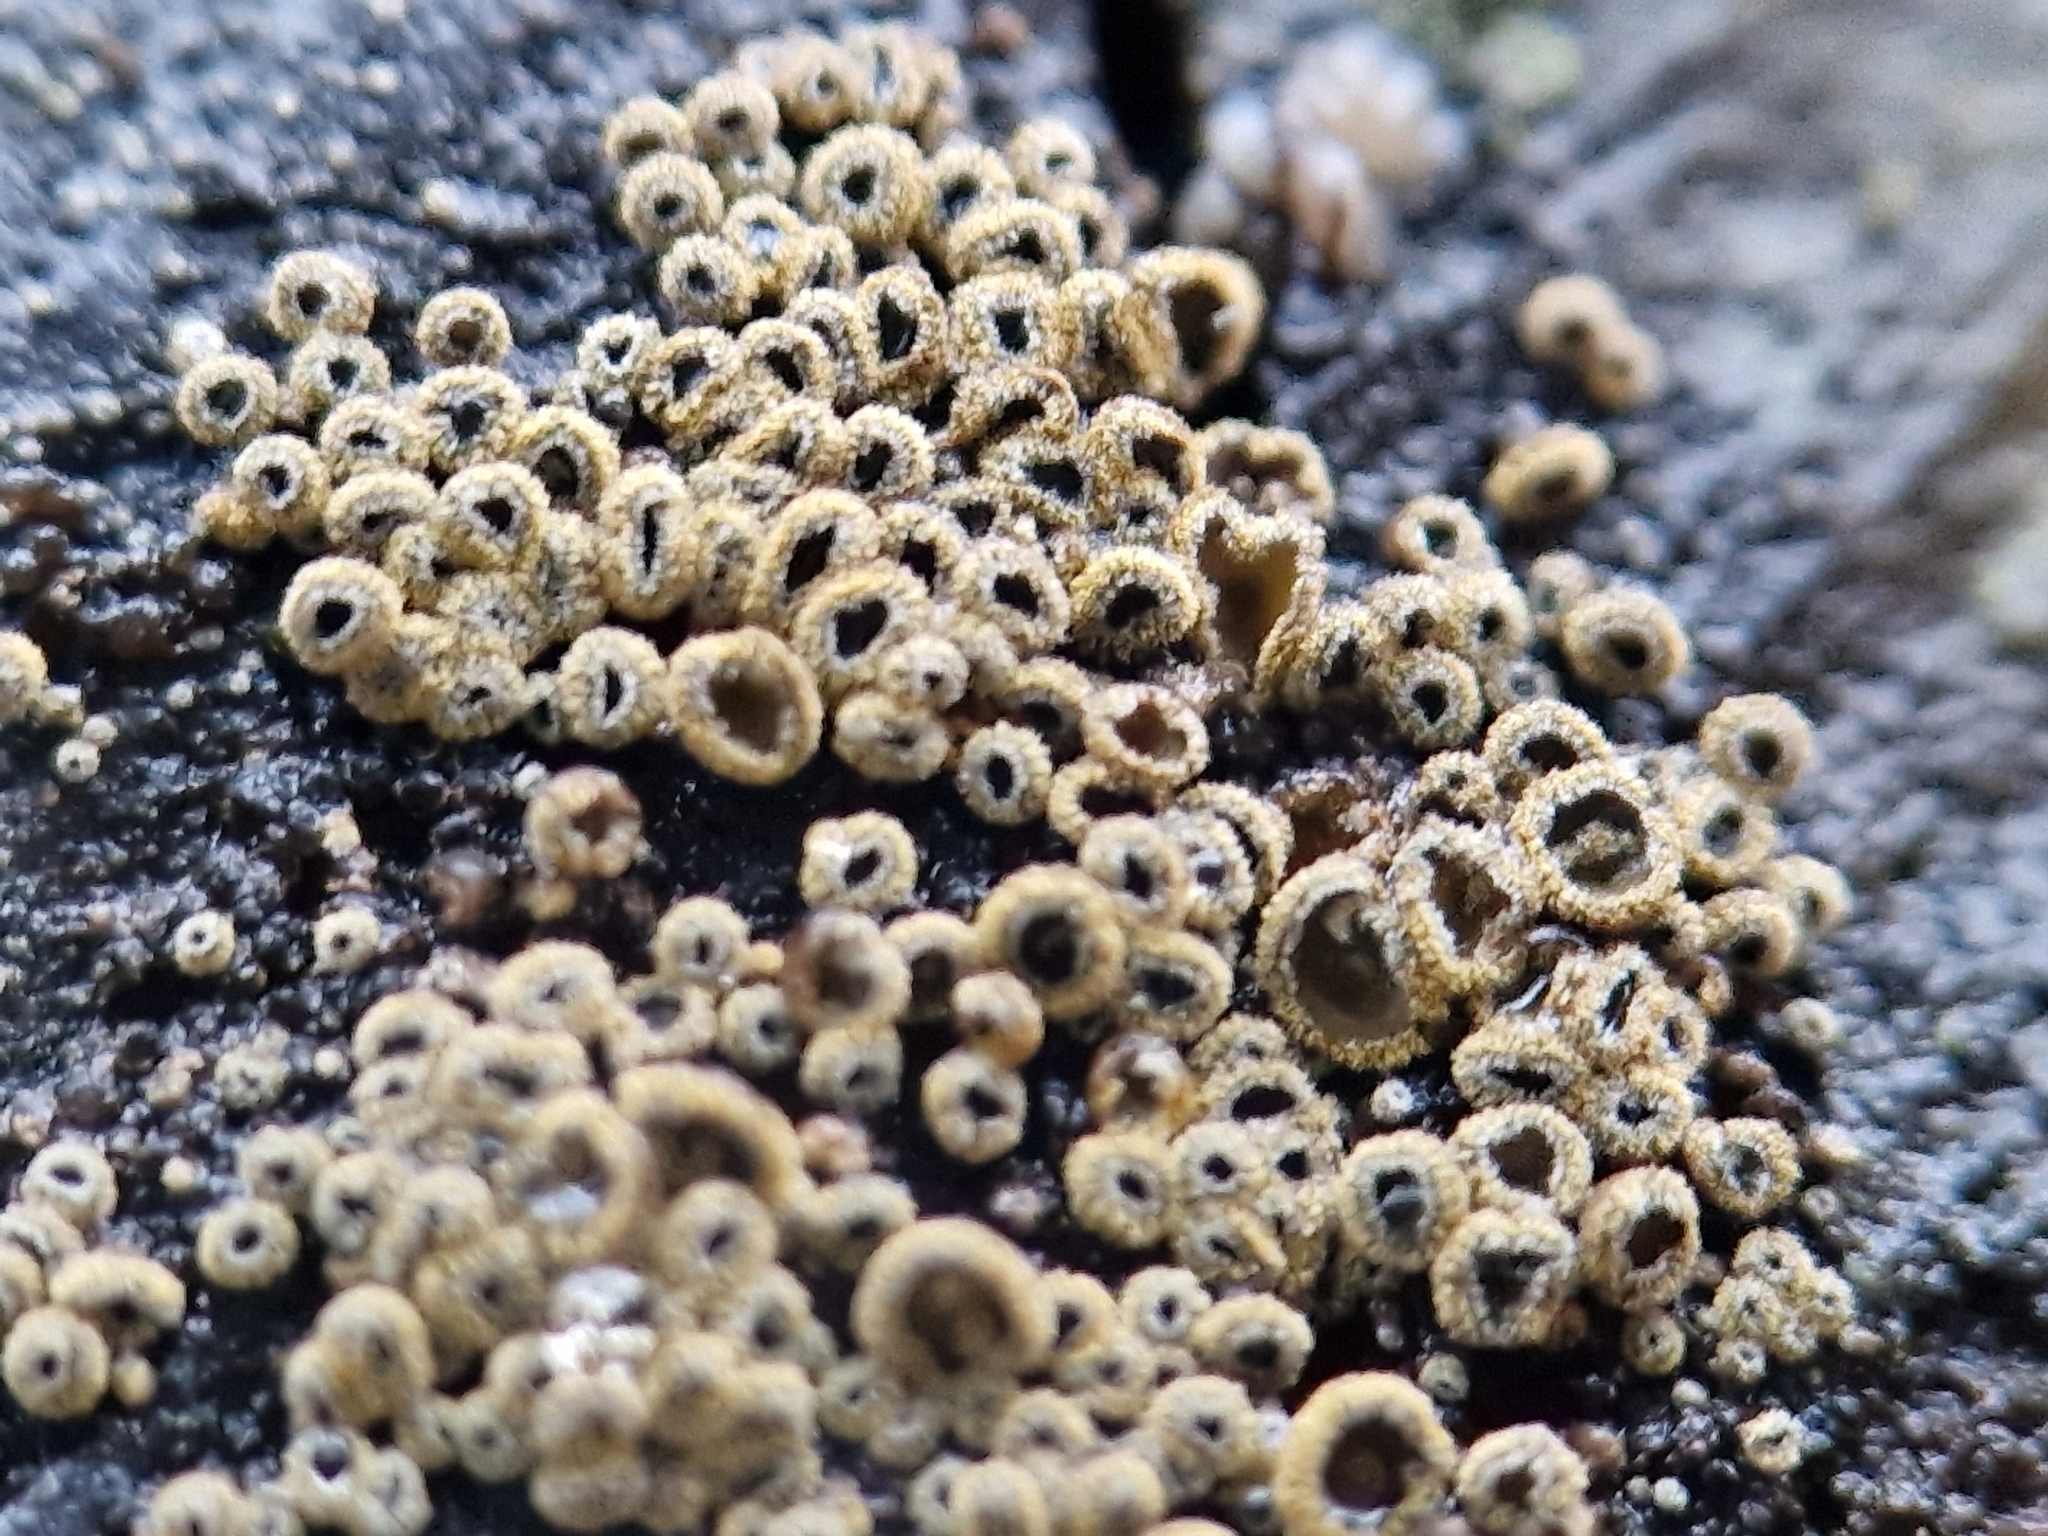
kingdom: Fungi
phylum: Ascomycota
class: Leotiomycetes
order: Helotiales
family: Lachnaceae
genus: Neodasyscypha
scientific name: Neodasyscypha cerina
